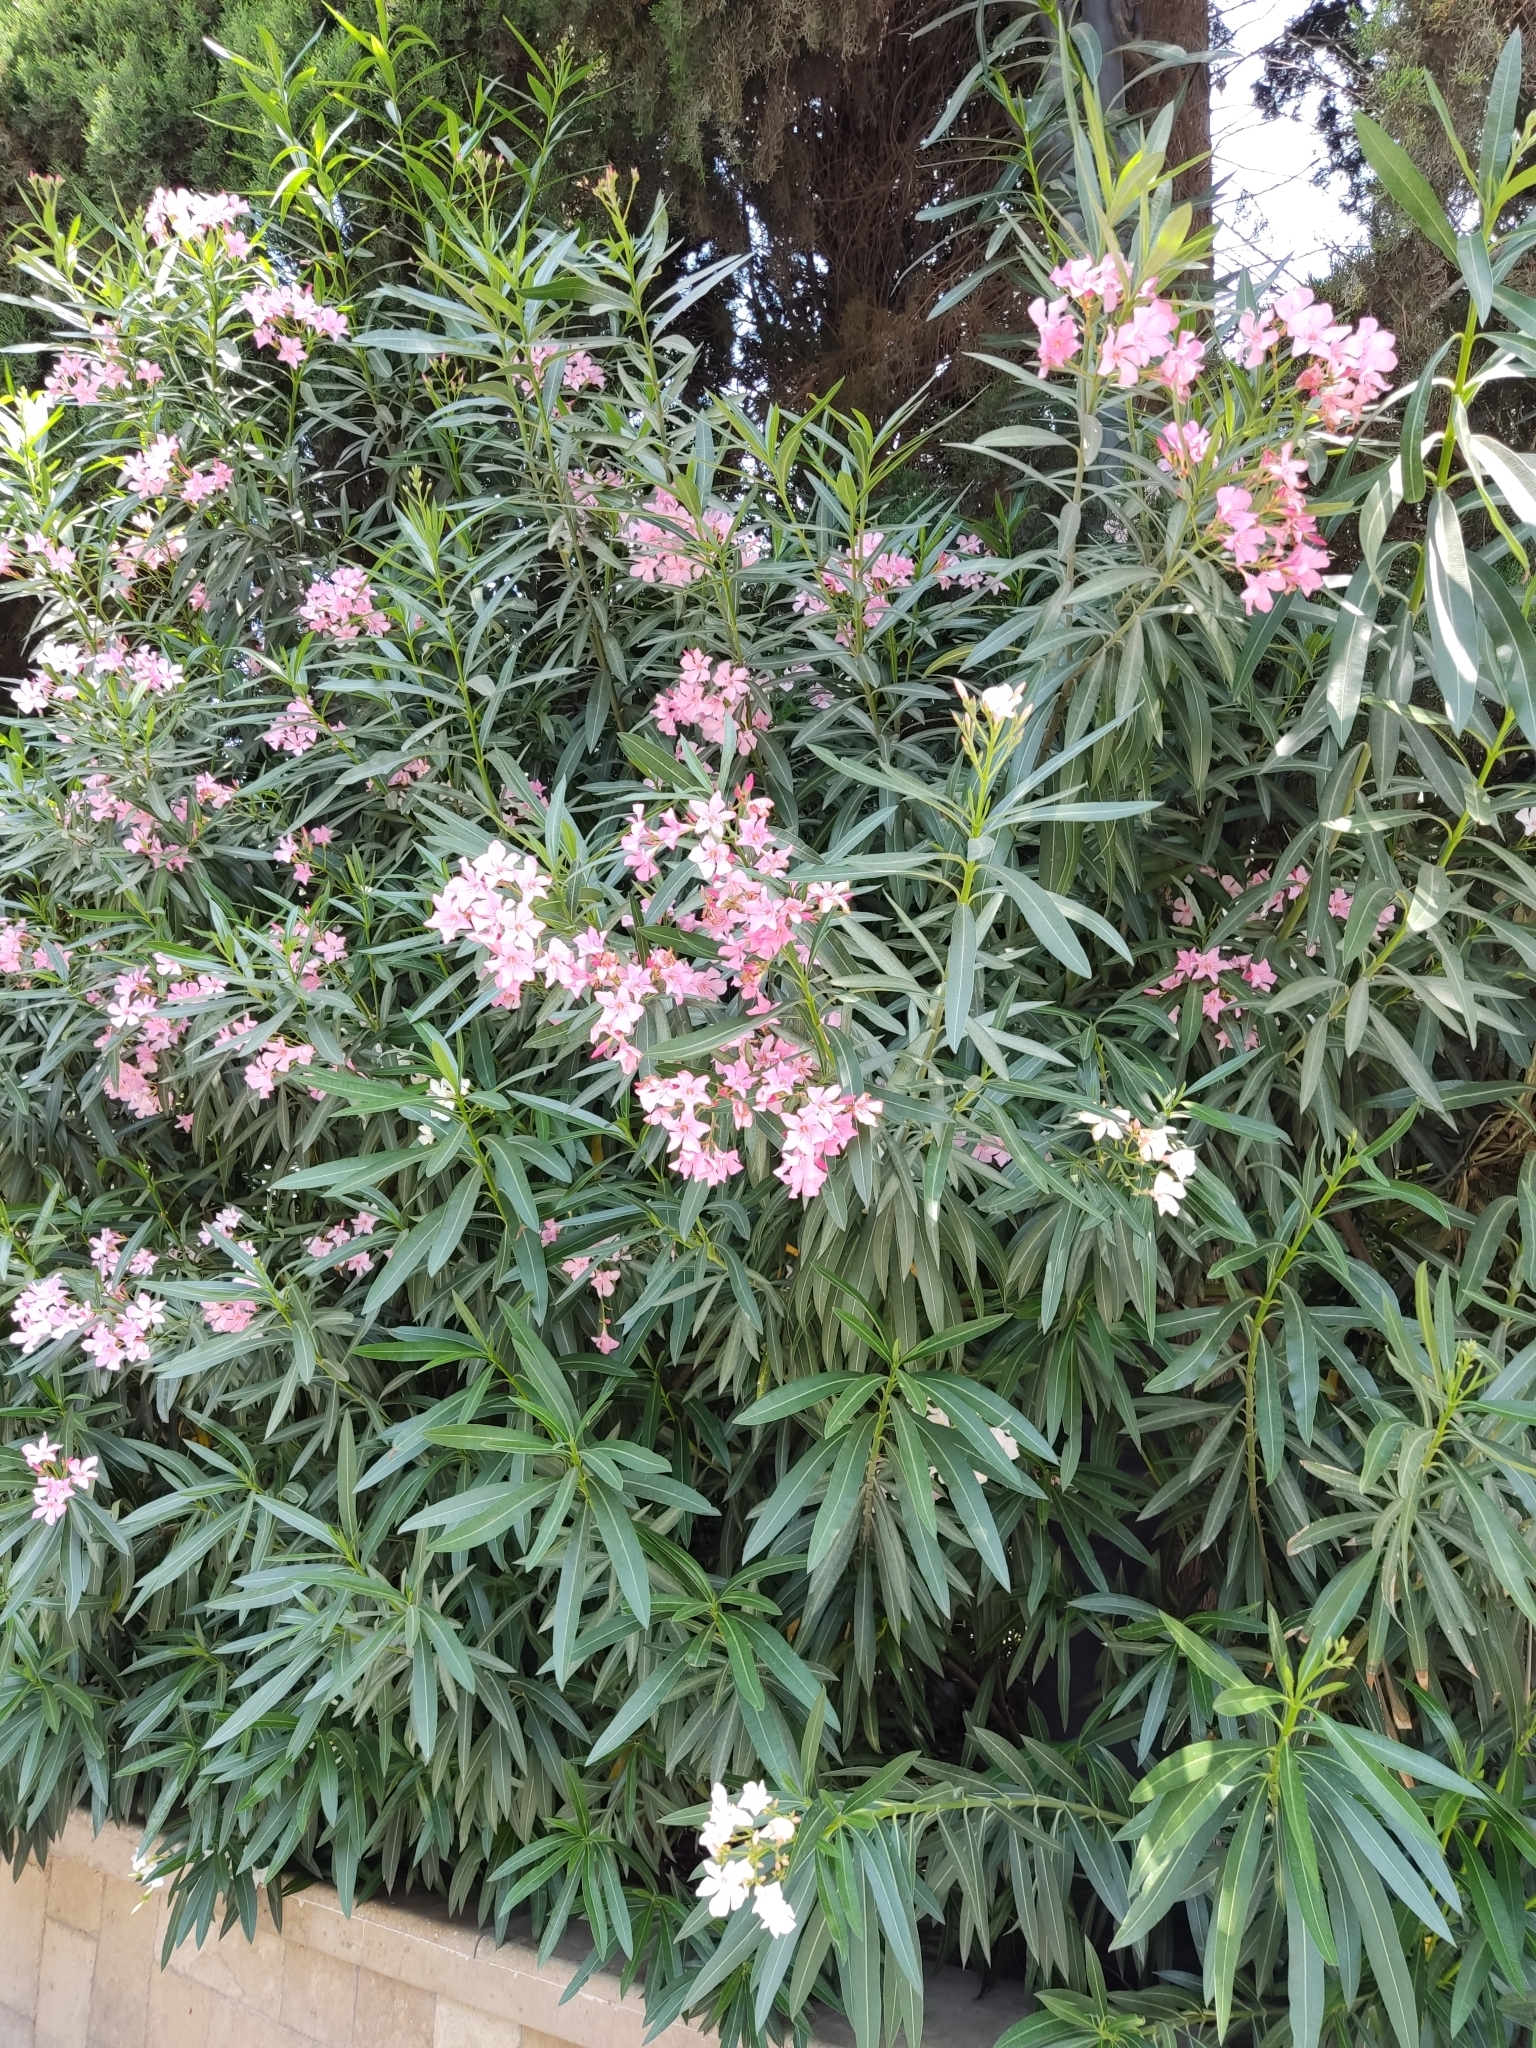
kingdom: Plantae
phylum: Tracheophyta
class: Magnoliopsida
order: Gentianales
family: Apocynaceae
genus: Nerium
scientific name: Nerium oleander
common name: Oleander
